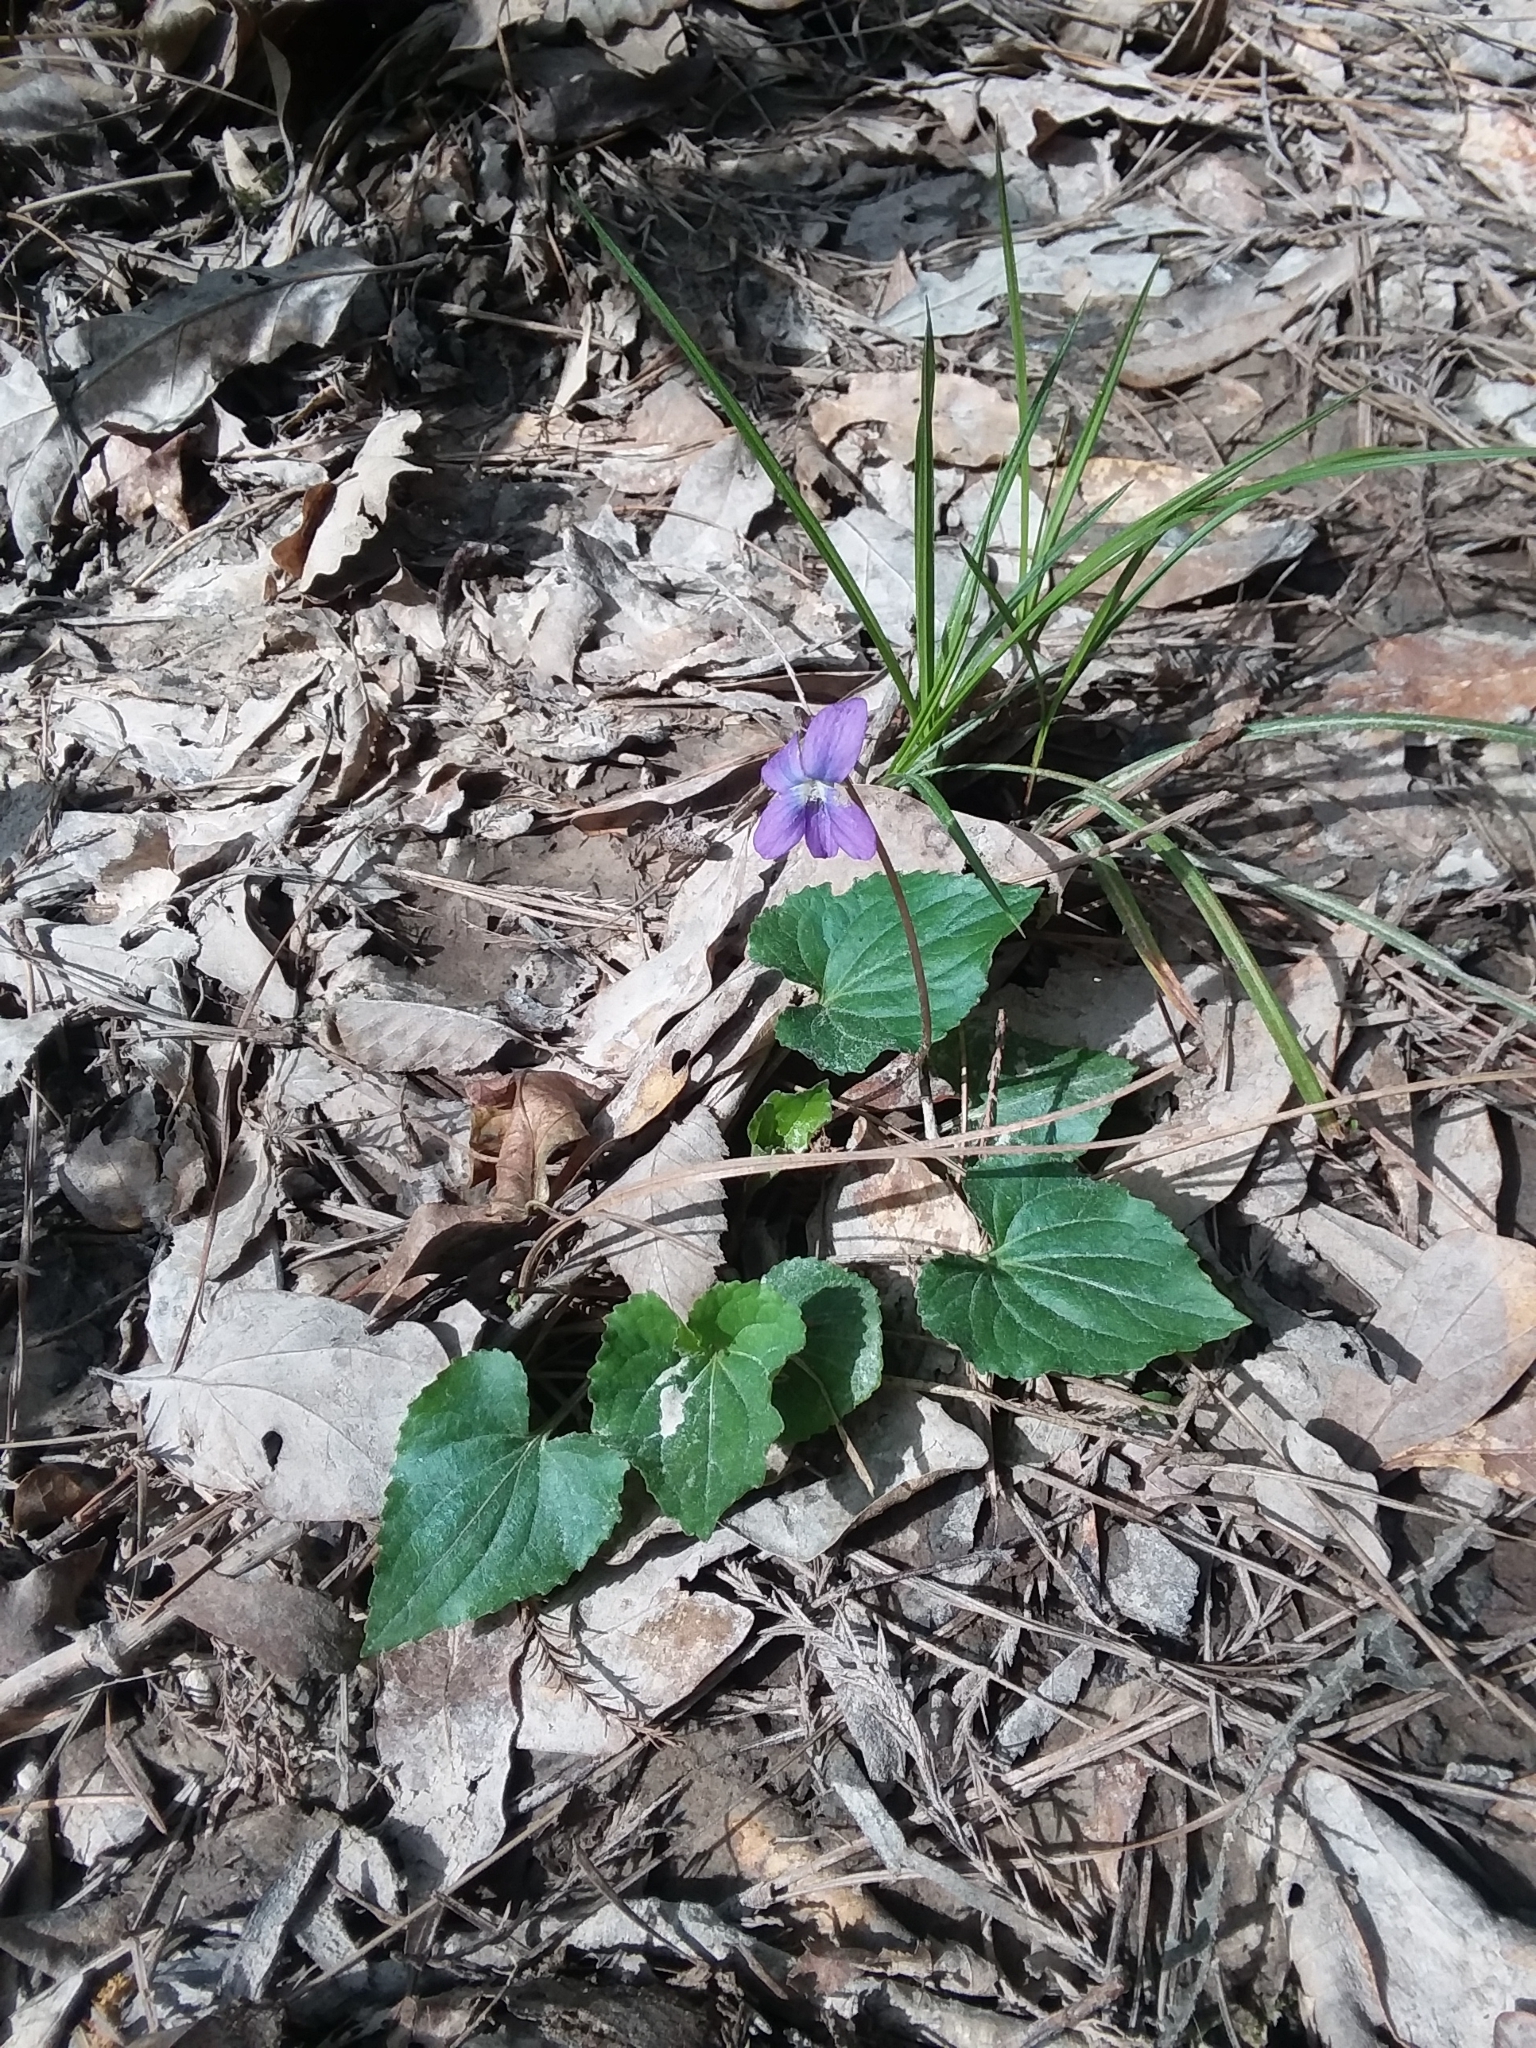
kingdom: Plantae
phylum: Tracheophyta
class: Magnoliopsida
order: Malpighiales
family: Violaceae
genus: Viola
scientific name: Viola sororia
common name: Dooryard violet
